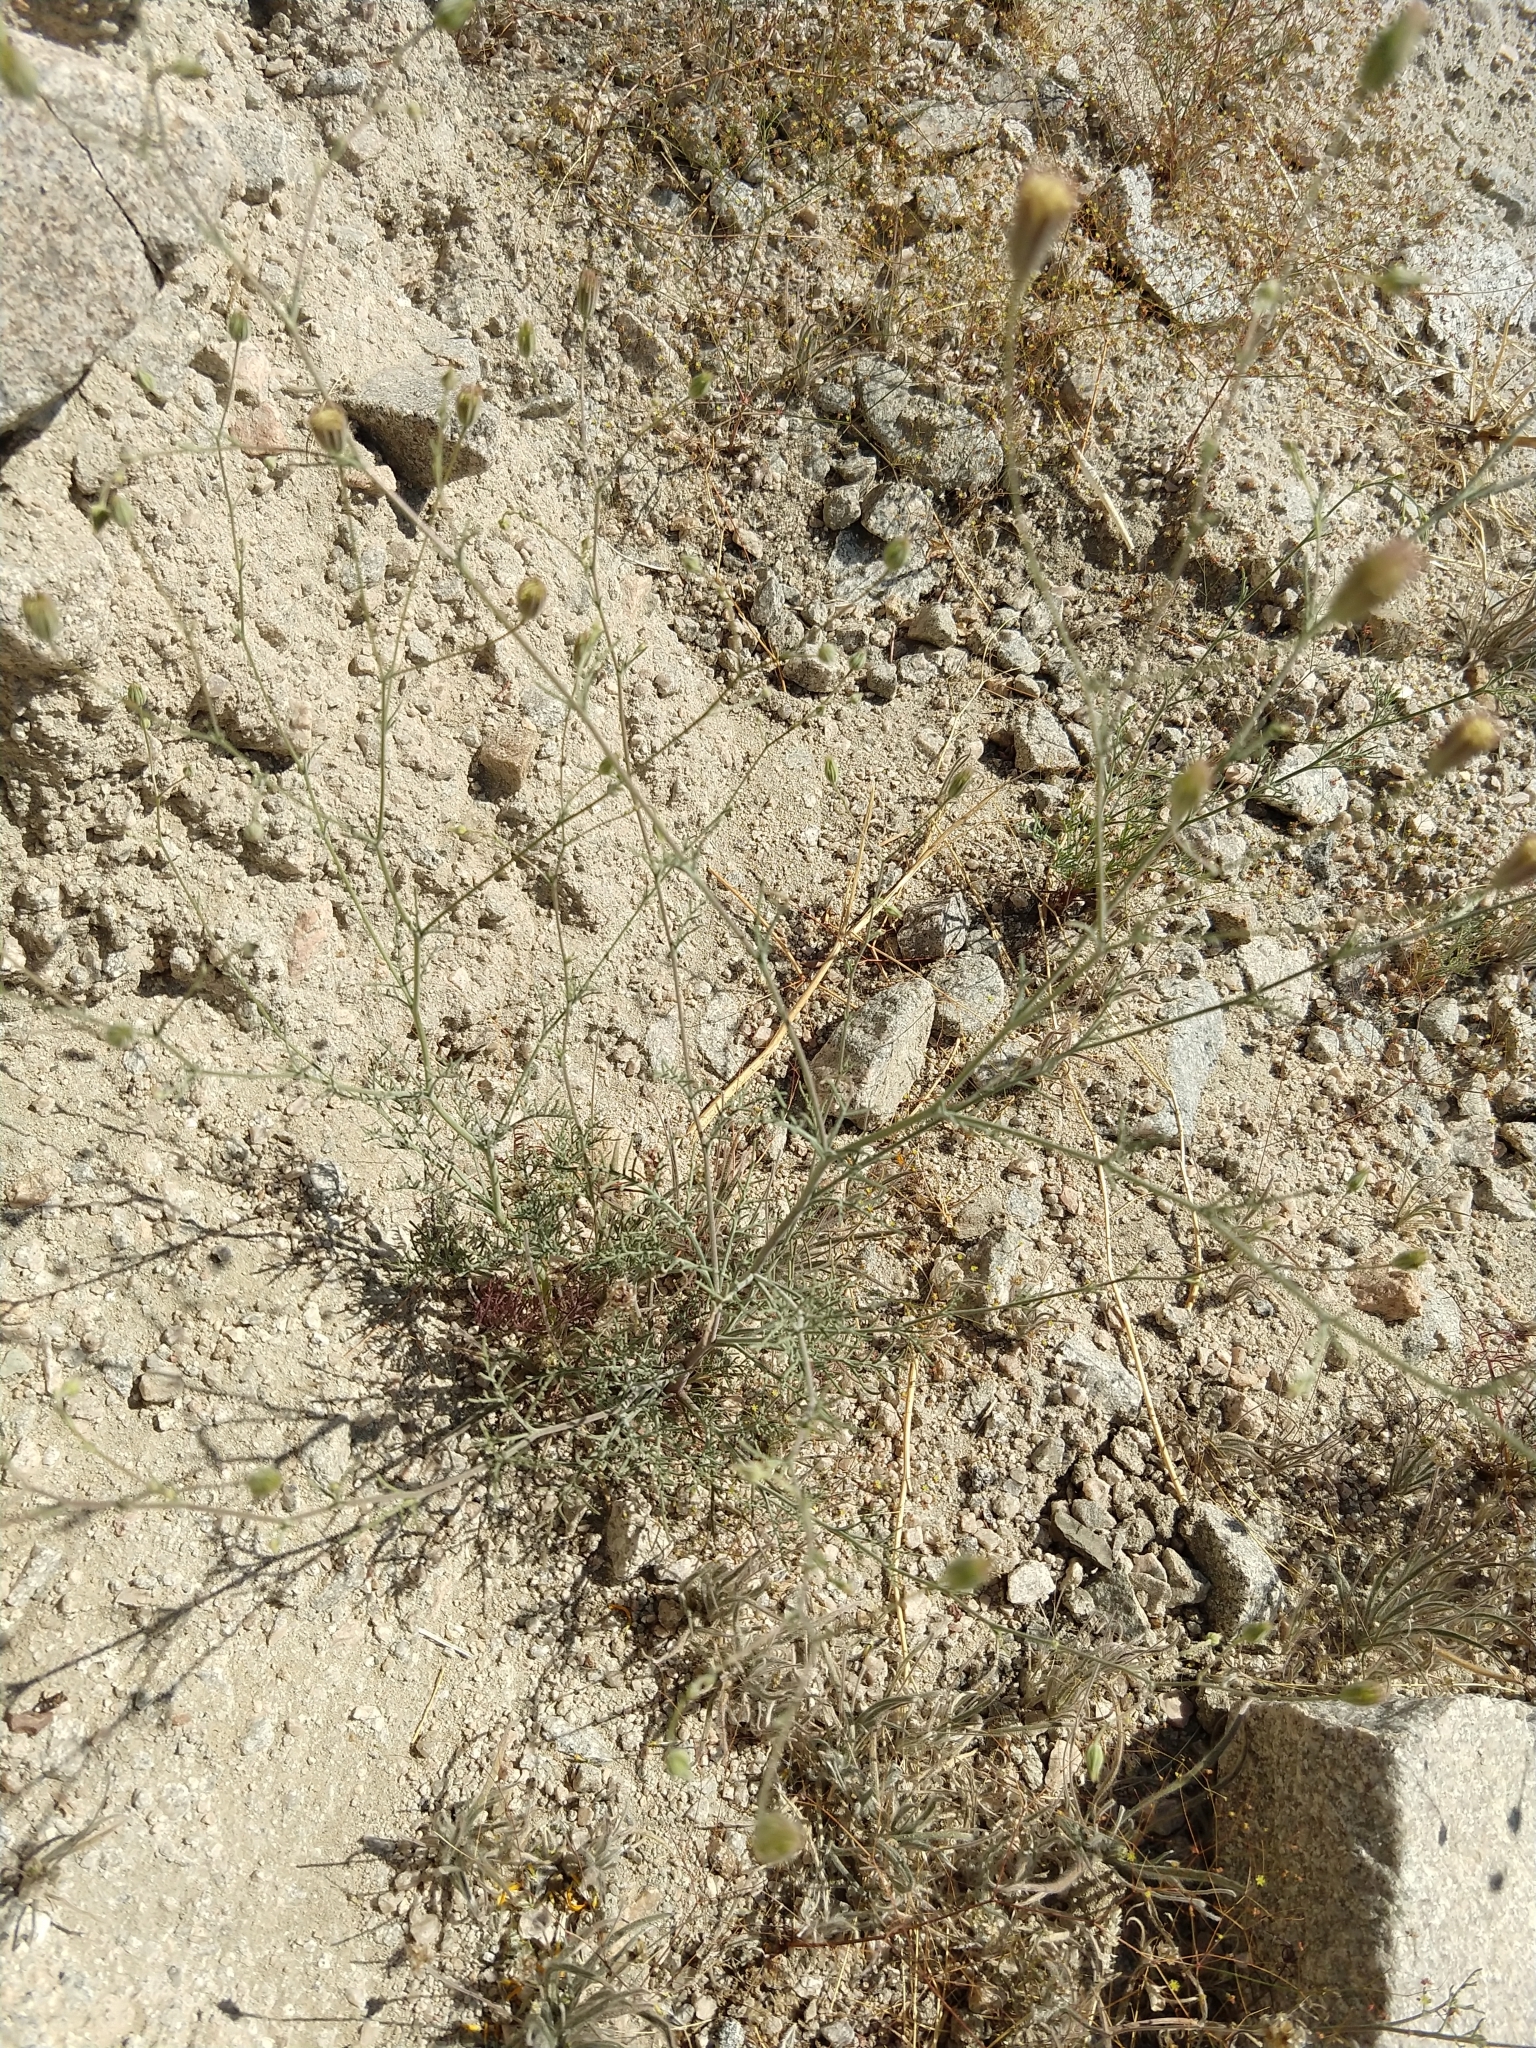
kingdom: Plantae
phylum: Tracheophyta
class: Magnoliopsida
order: Asterales
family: Asteraceae
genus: Chaenactis
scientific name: Chaenactis carphoclinia
